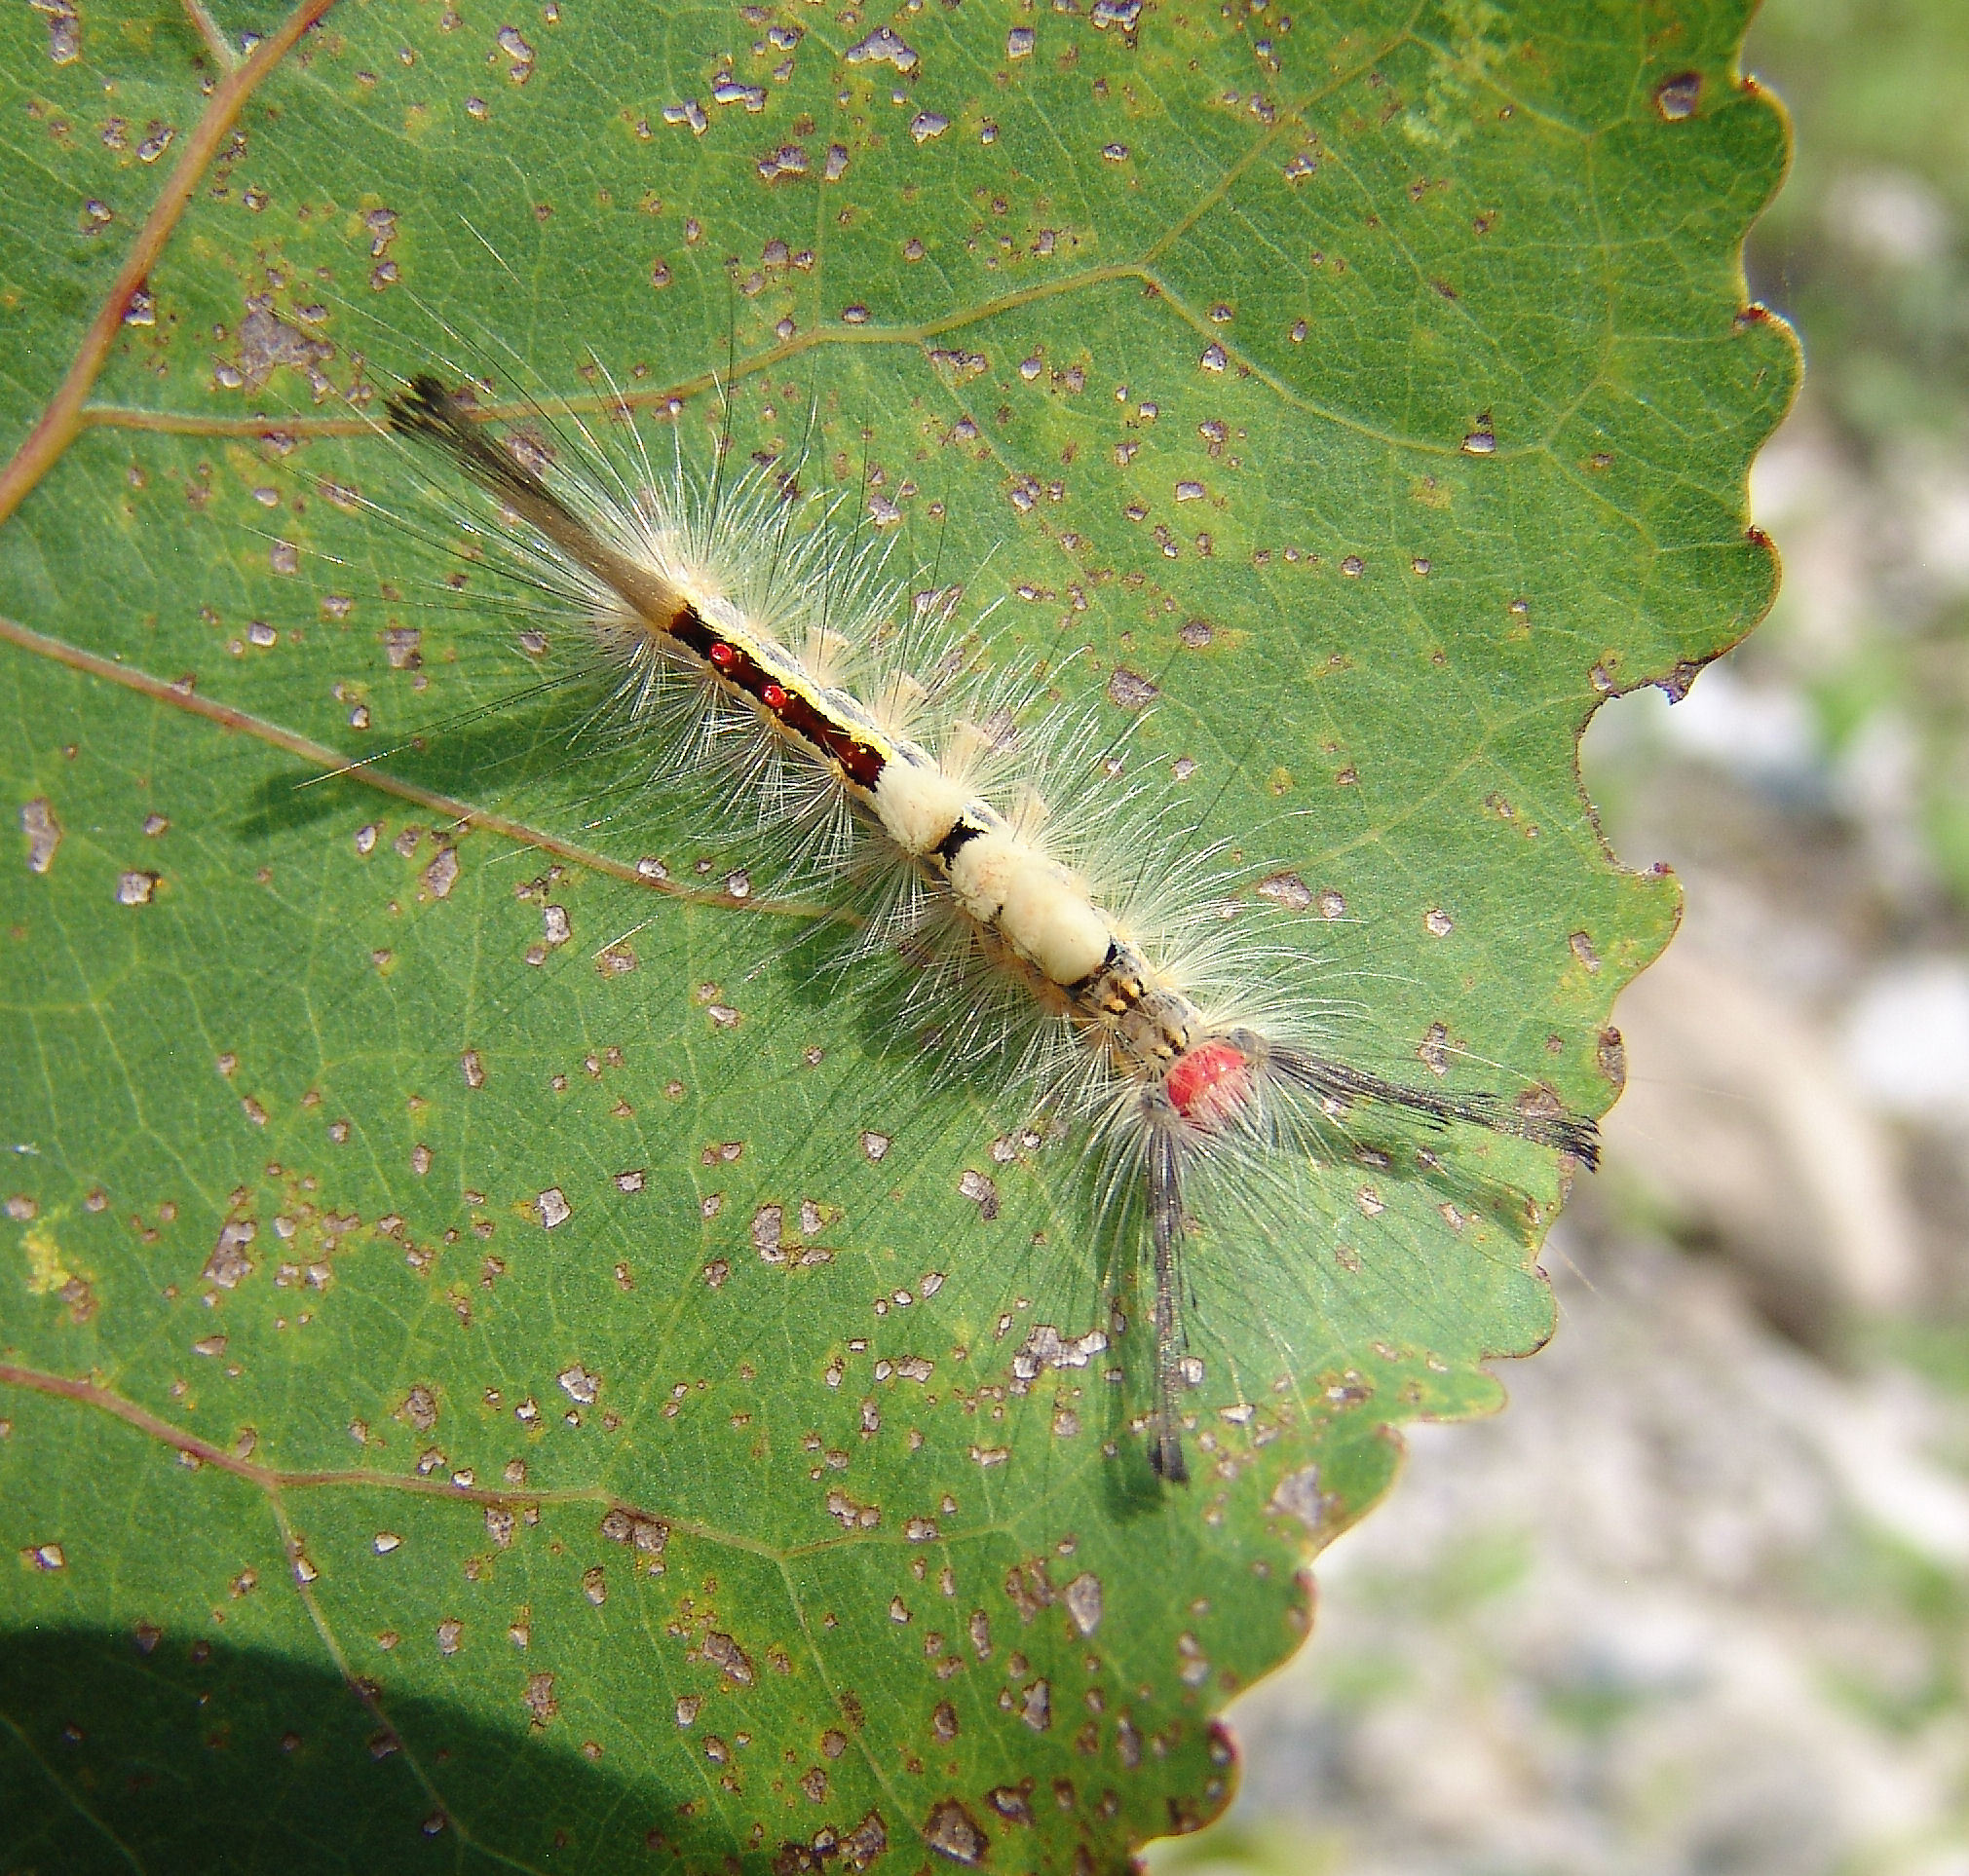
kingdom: Animalia
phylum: Arthropoda
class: Insecta
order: Lepidoptera
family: Erebidae
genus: Orgyia
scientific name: Orgyia leucostigma
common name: White-marked tussock moth
